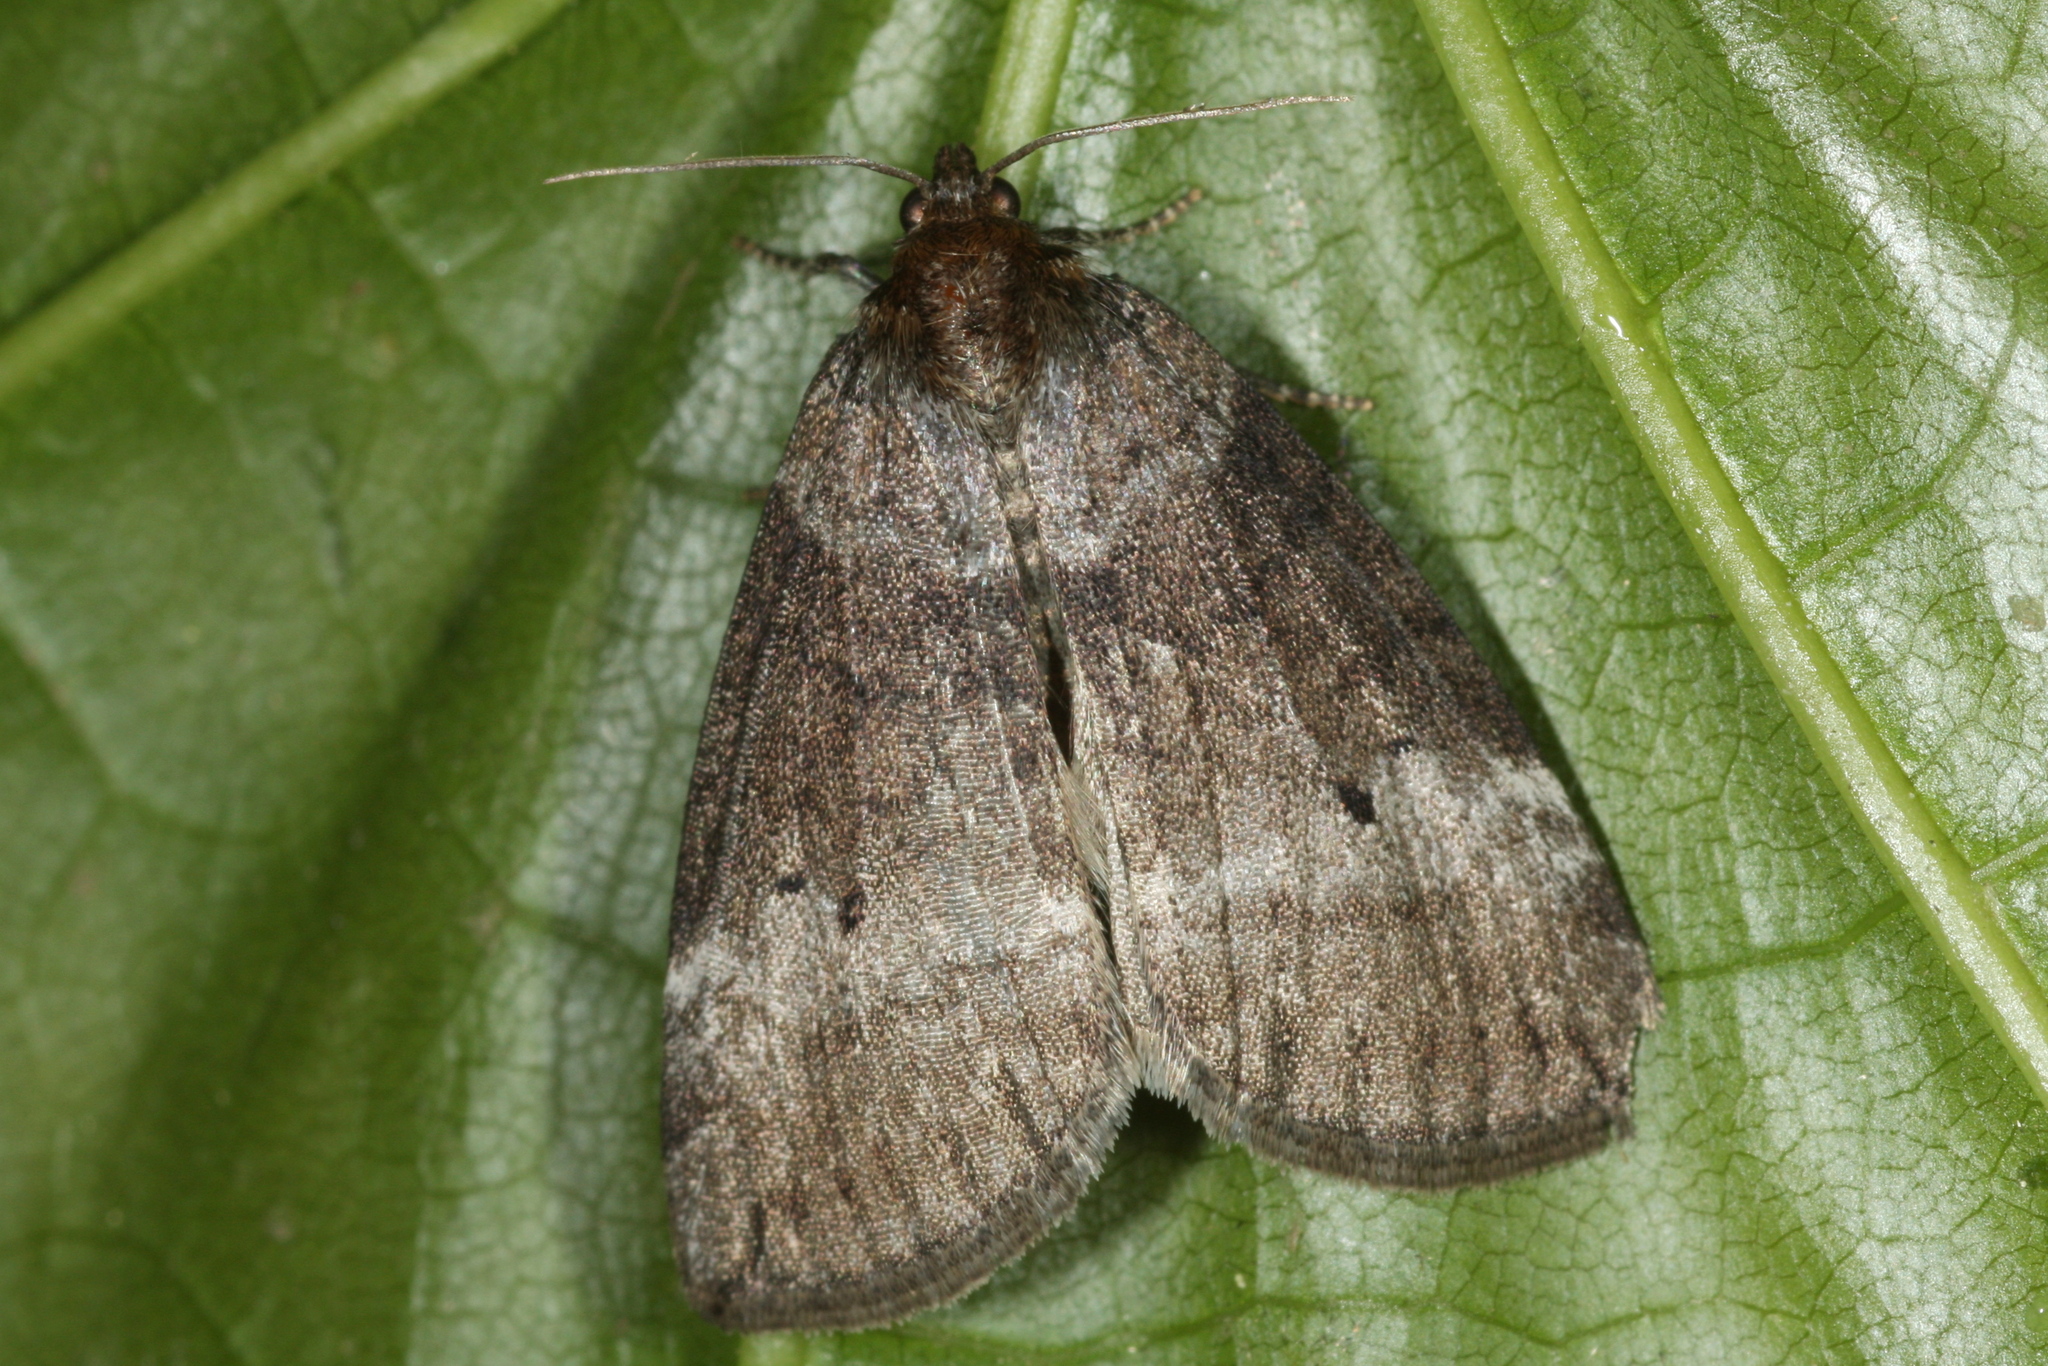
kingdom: Animalia
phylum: Arthropoda
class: Insecta
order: Lepidoptera
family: Drepanidae
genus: Ochropacha
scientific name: Ochropacha duplaris
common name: Common lutestring
